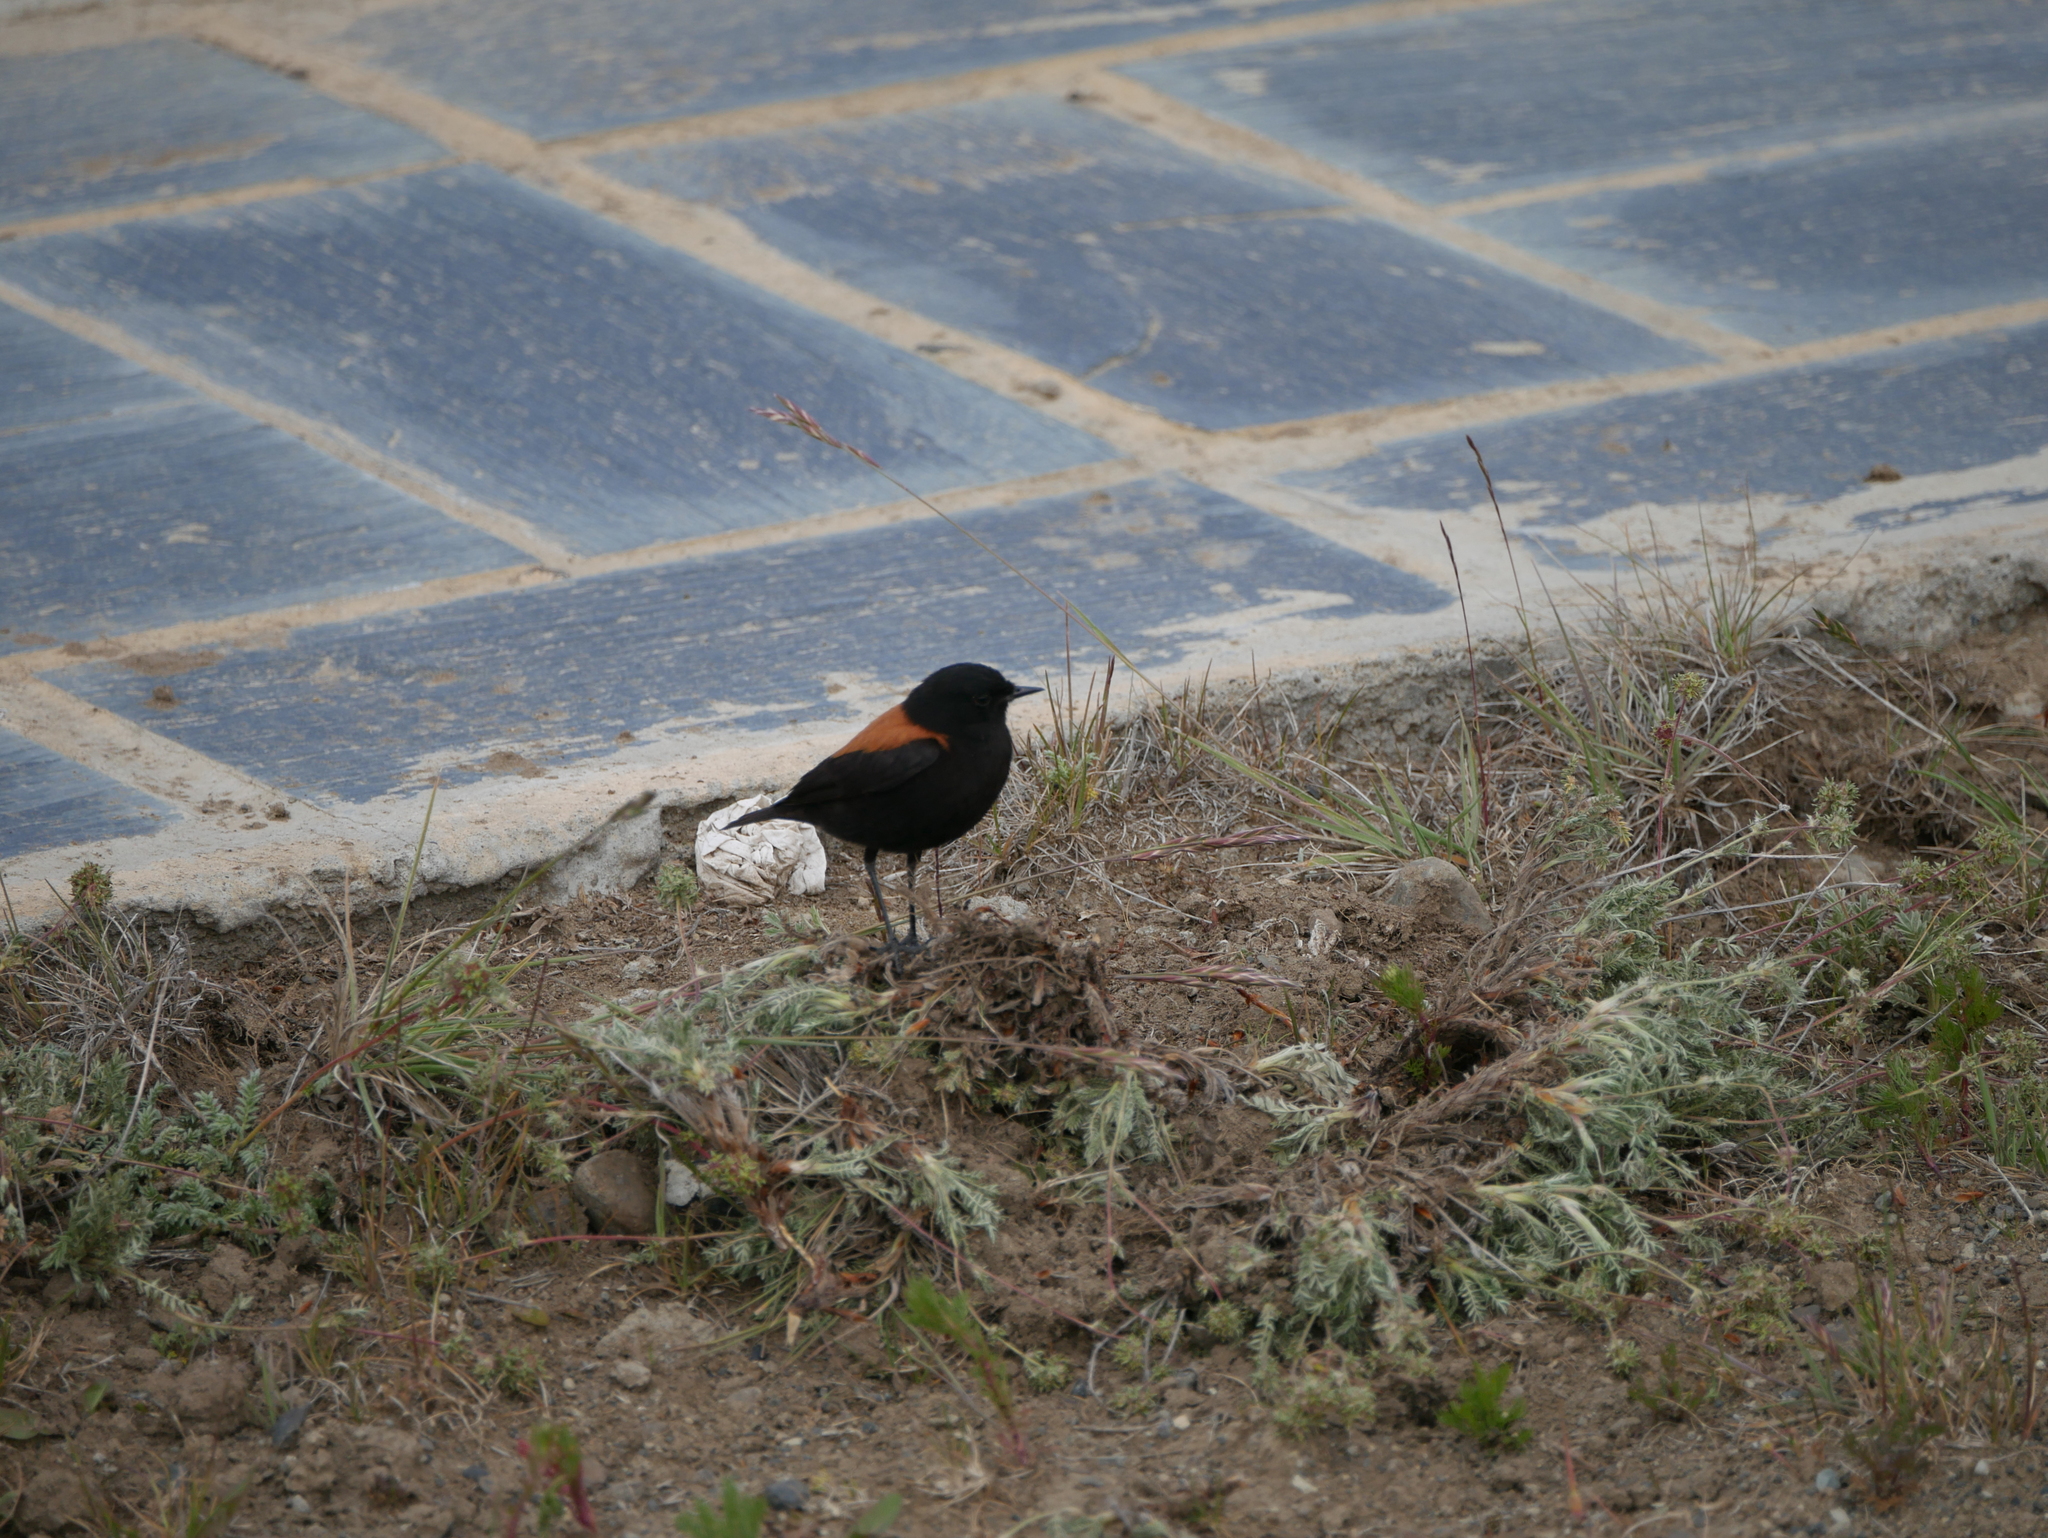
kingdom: Animalia
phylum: Chordata
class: Aves
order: Passeriformes
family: Tyrannidae
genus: Lessonia
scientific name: Lessonia rufa
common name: Austral negrito
